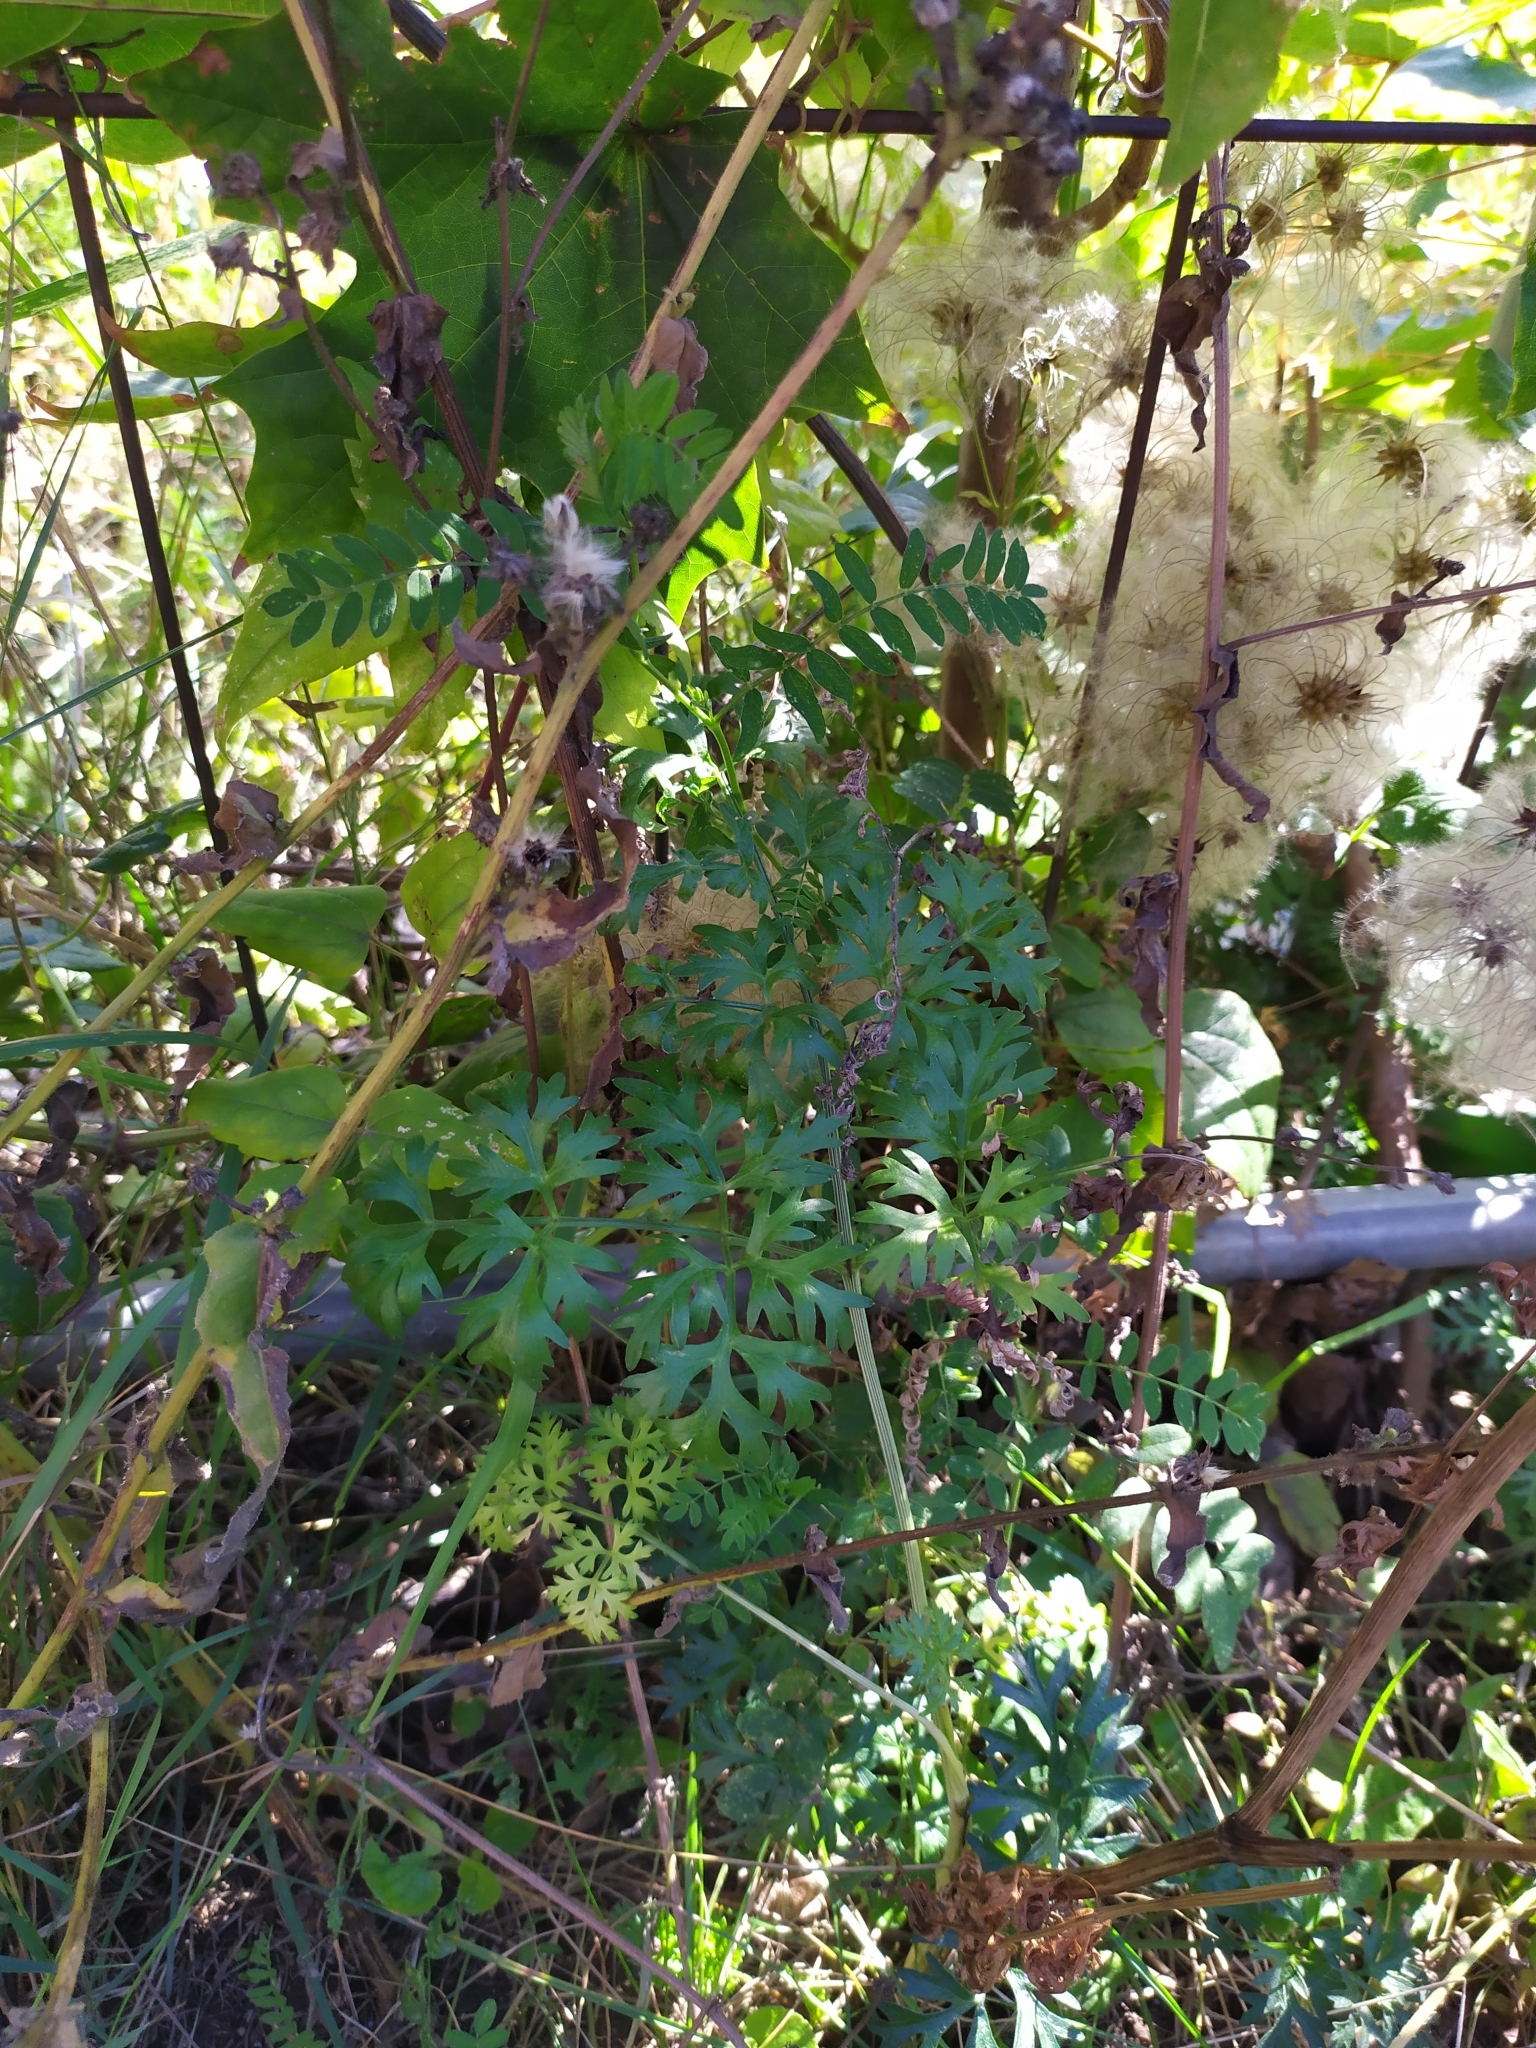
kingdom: Plantae
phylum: Tracheophyta
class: Magnoliopsida
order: Apiales
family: Apiaceae
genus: Peucedanum
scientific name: Peucedanum austriacum
